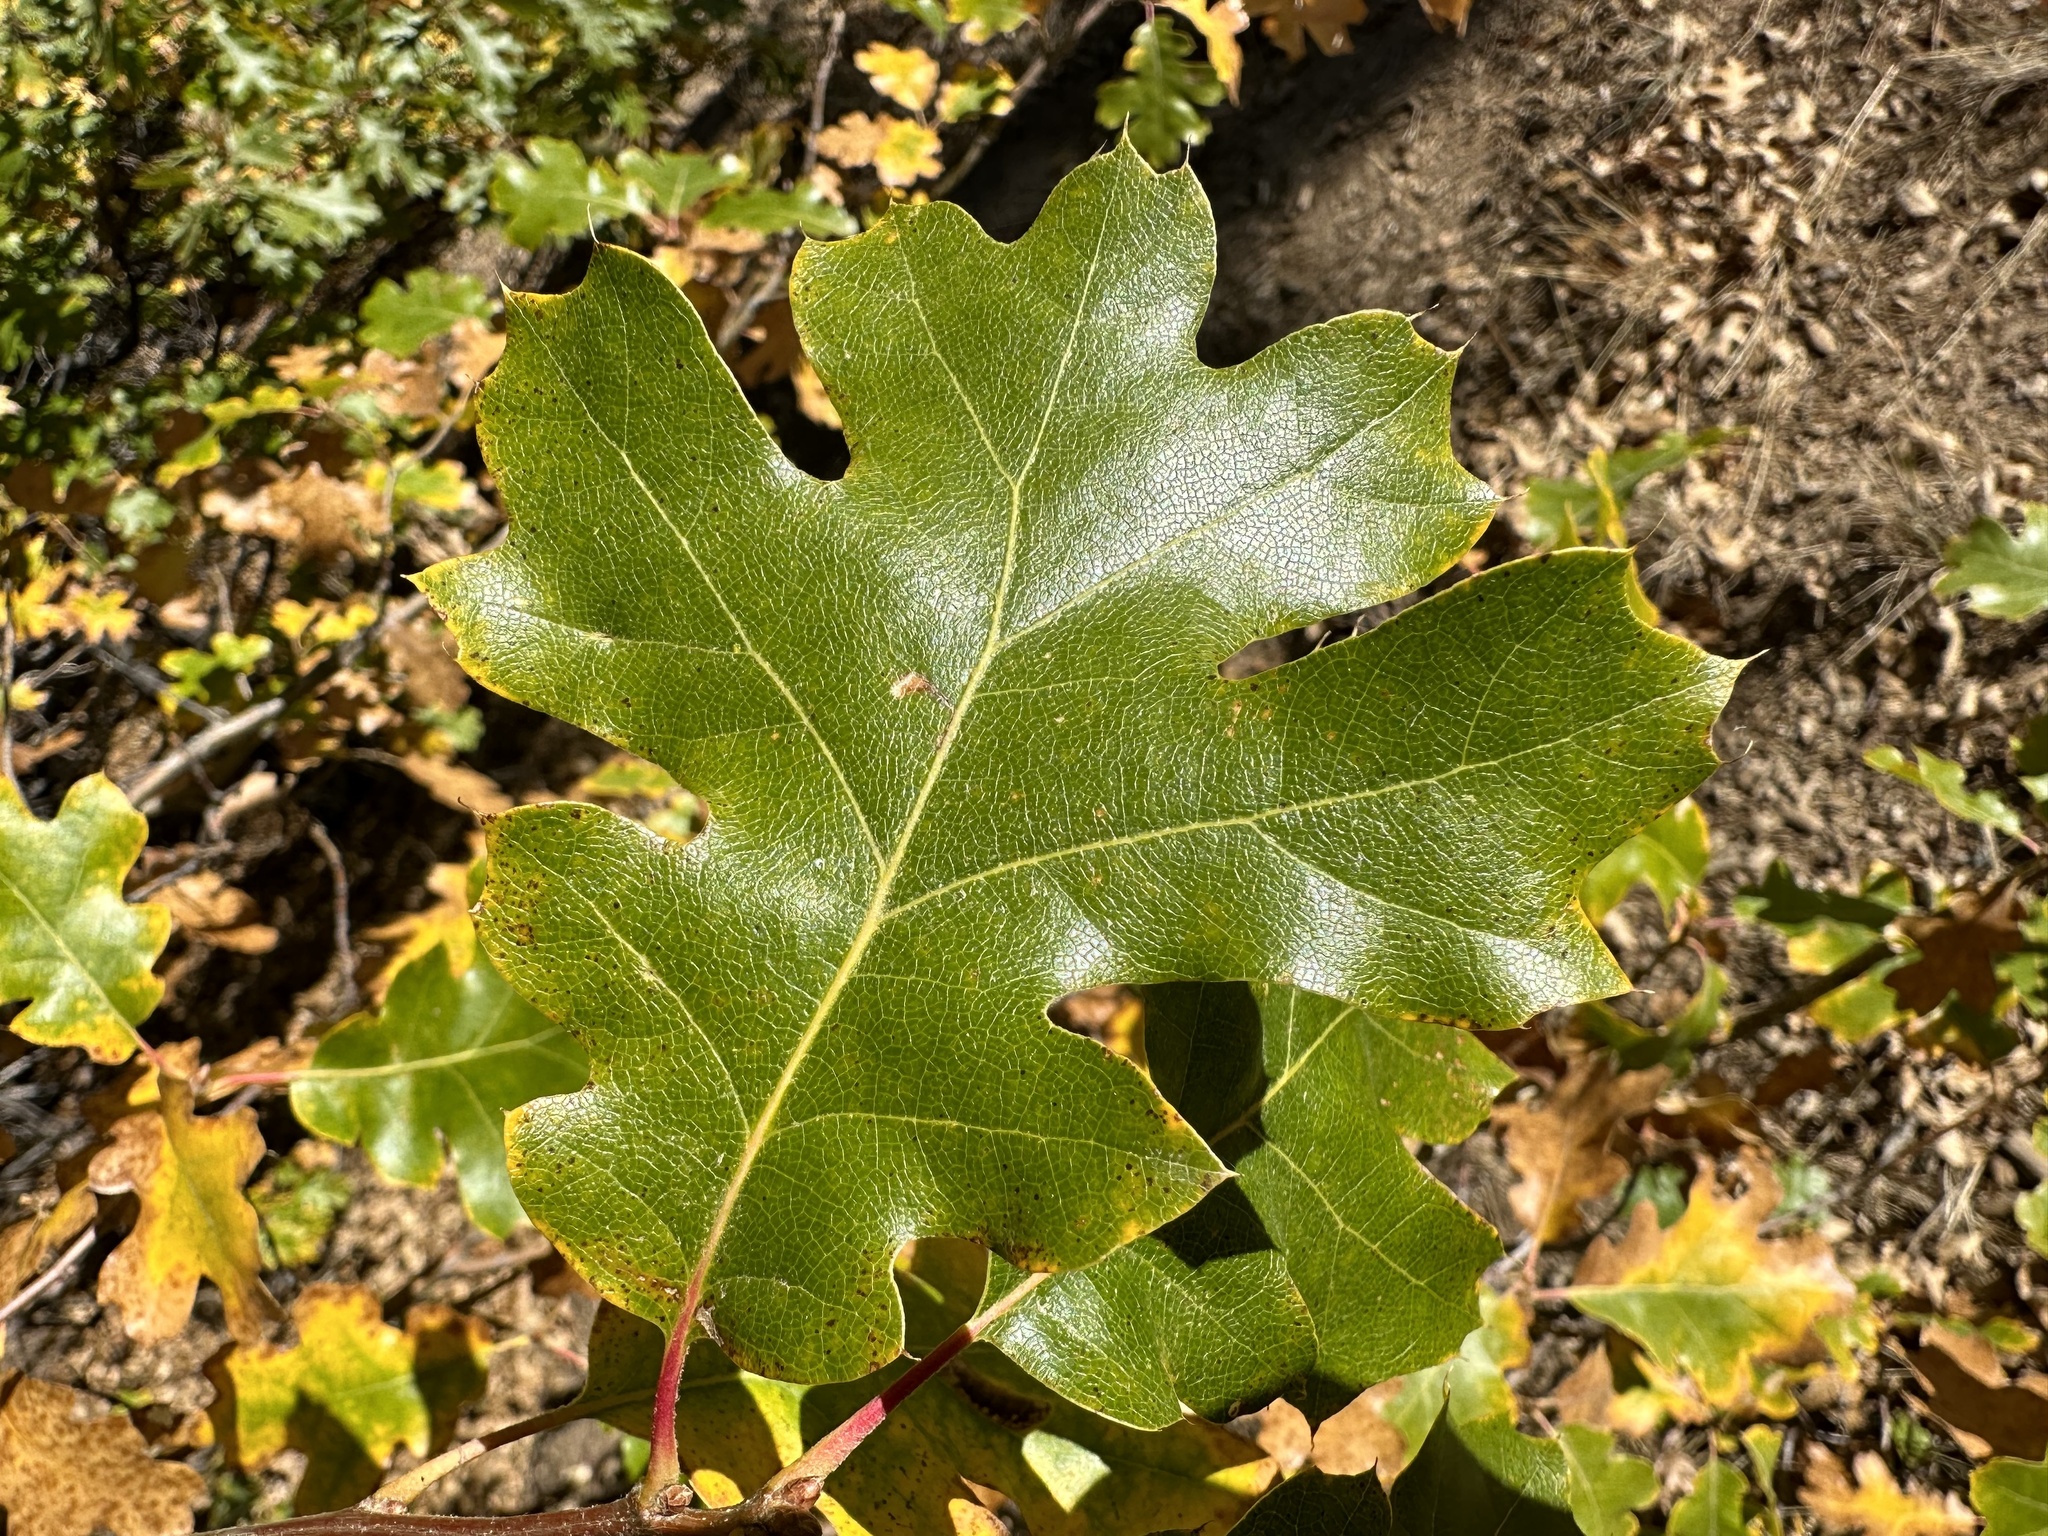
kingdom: Plantae
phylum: Tracheophyta
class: Magnoliopsida
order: Fagales
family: Fagaceae
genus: Quercus
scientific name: Quercus kelloggii
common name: California black oak
